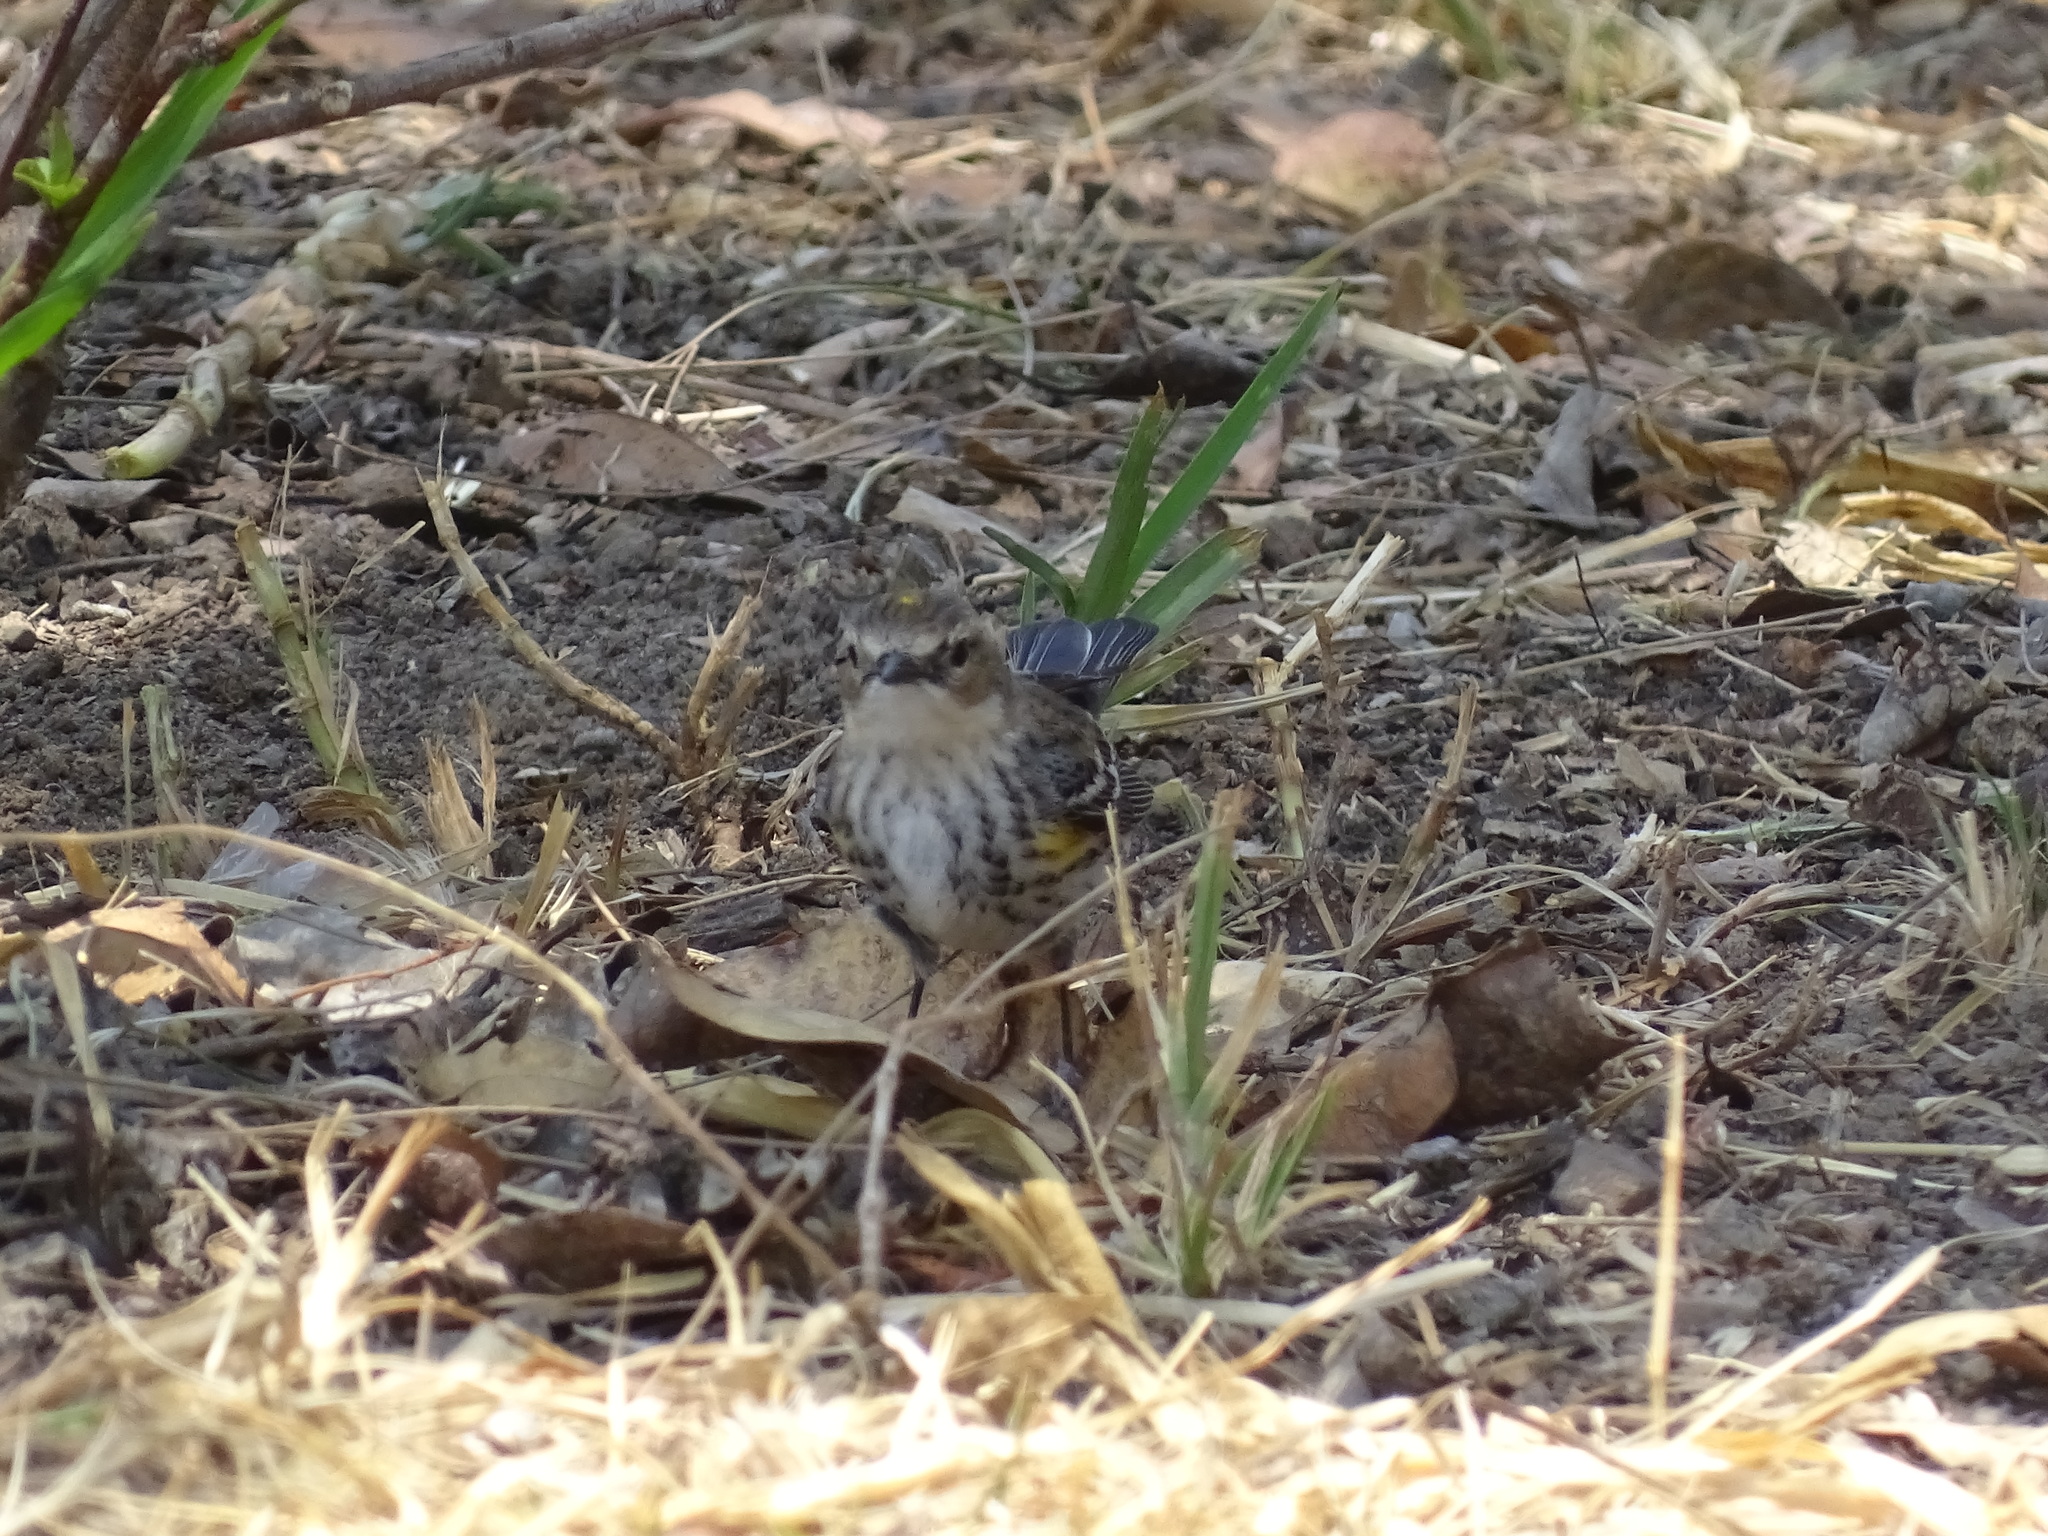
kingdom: Animalia
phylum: Chordata
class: Aves
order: Passeriformes
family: Parulidae
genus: Setophaga
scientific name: Setophaga coronata
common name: Myrtle warbler
